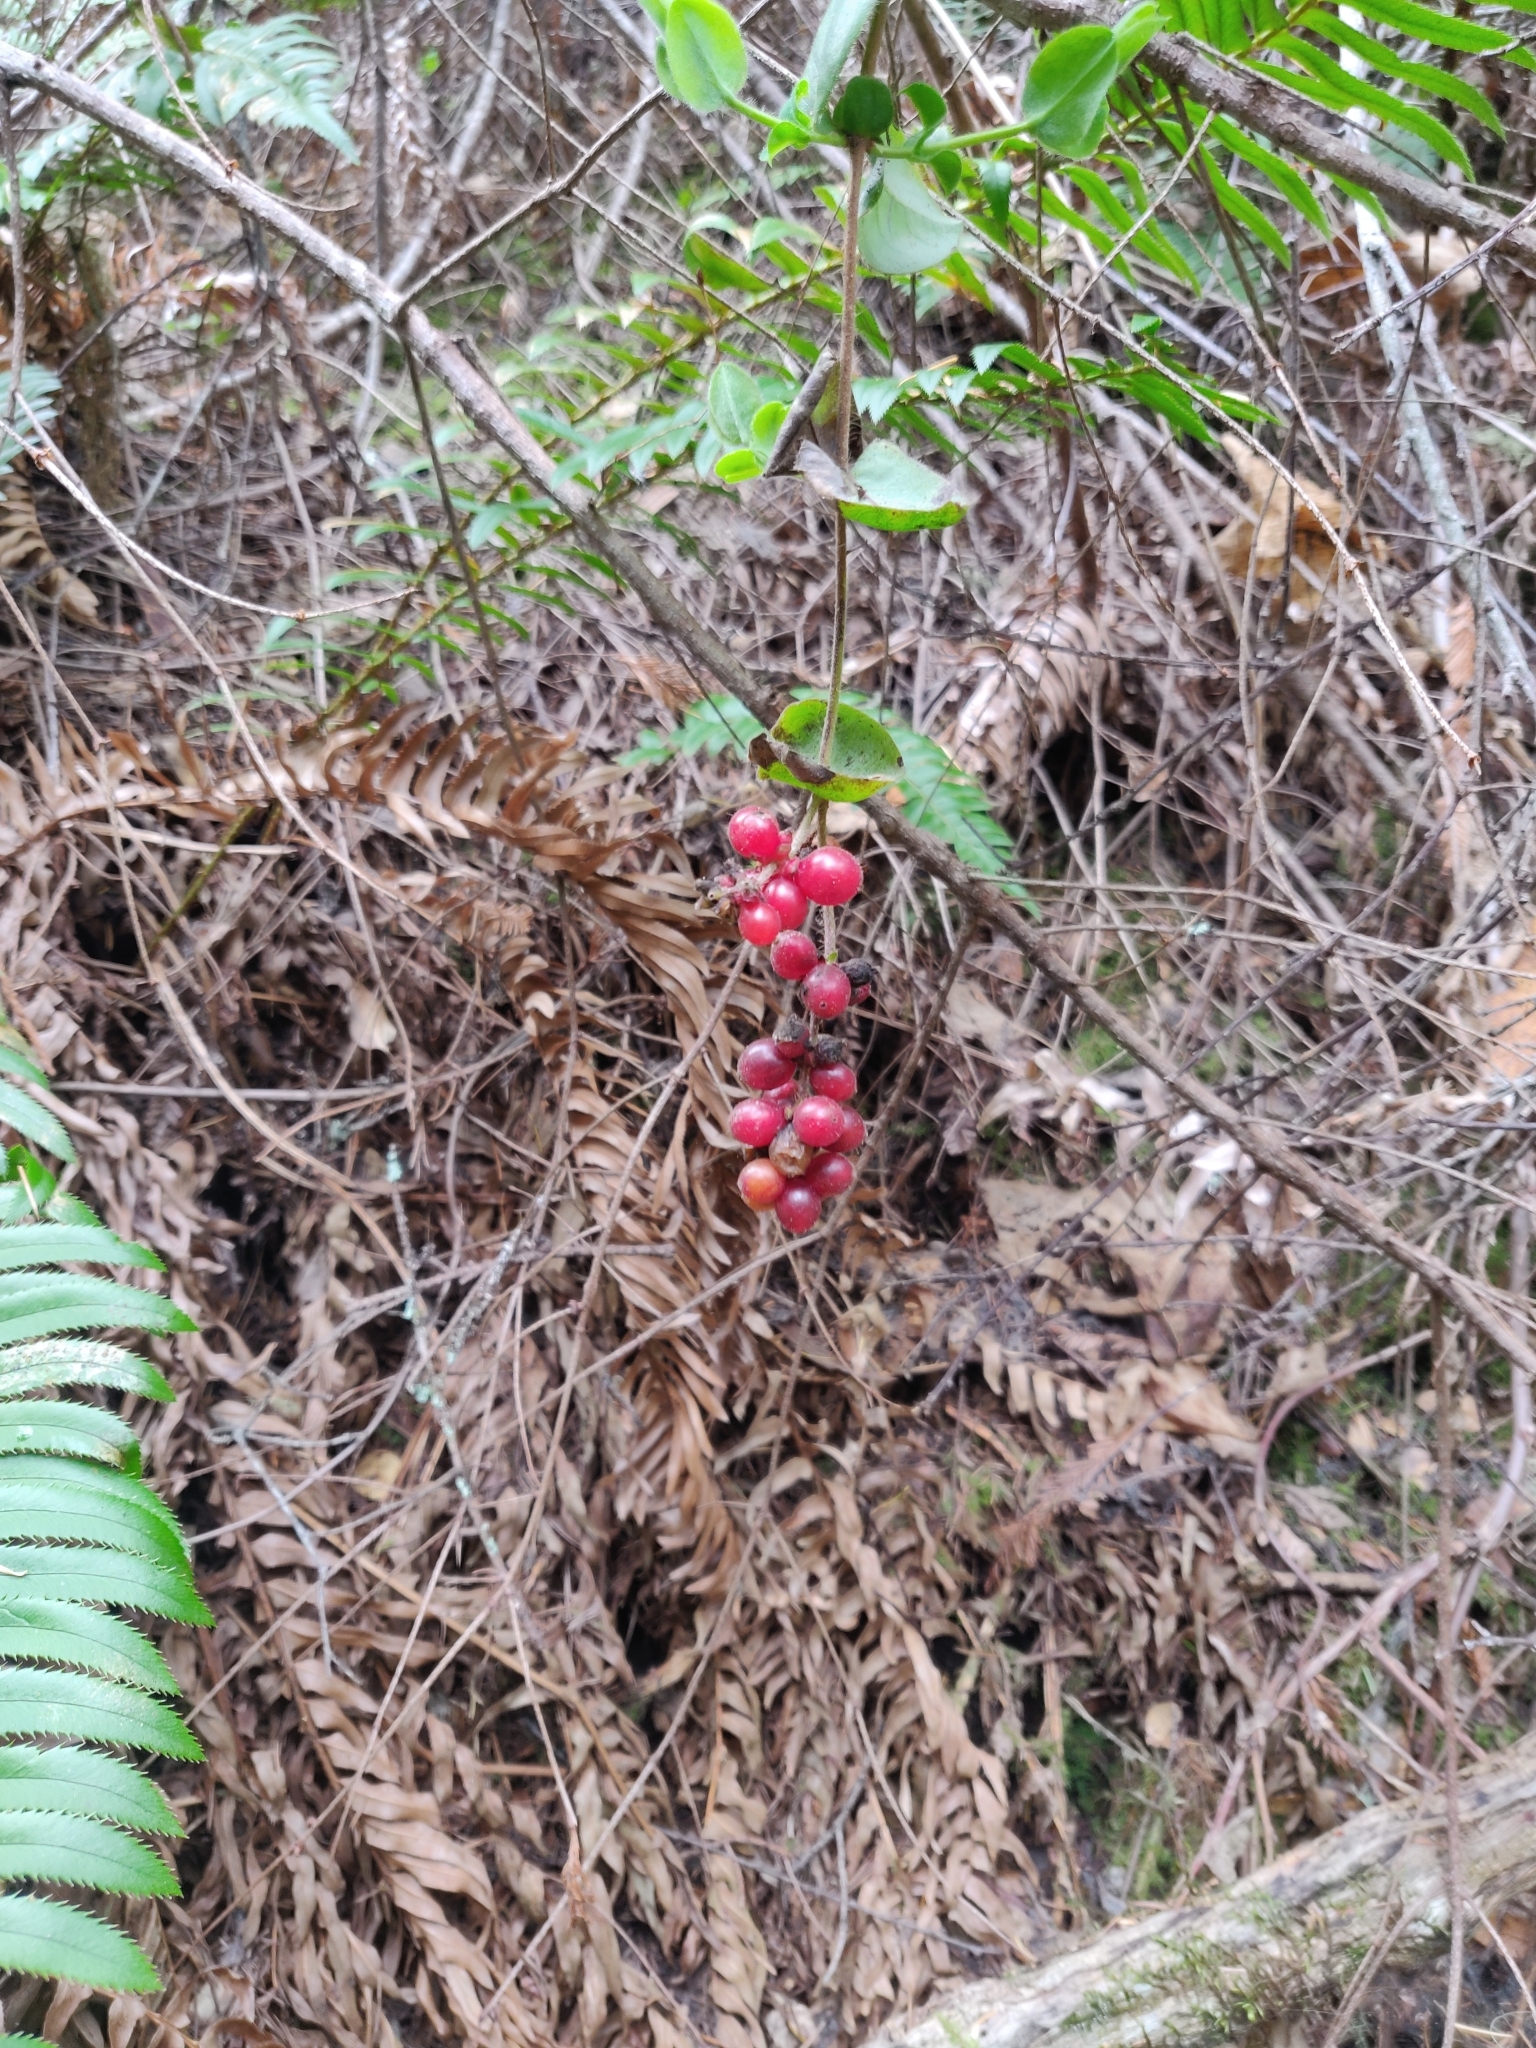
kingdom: Plantae
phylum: Tracheophyta
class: Magnoliopsida
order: Dipsacales
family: Caprifoliaceae
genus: Lonicera
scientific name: Lonicera hispidula
